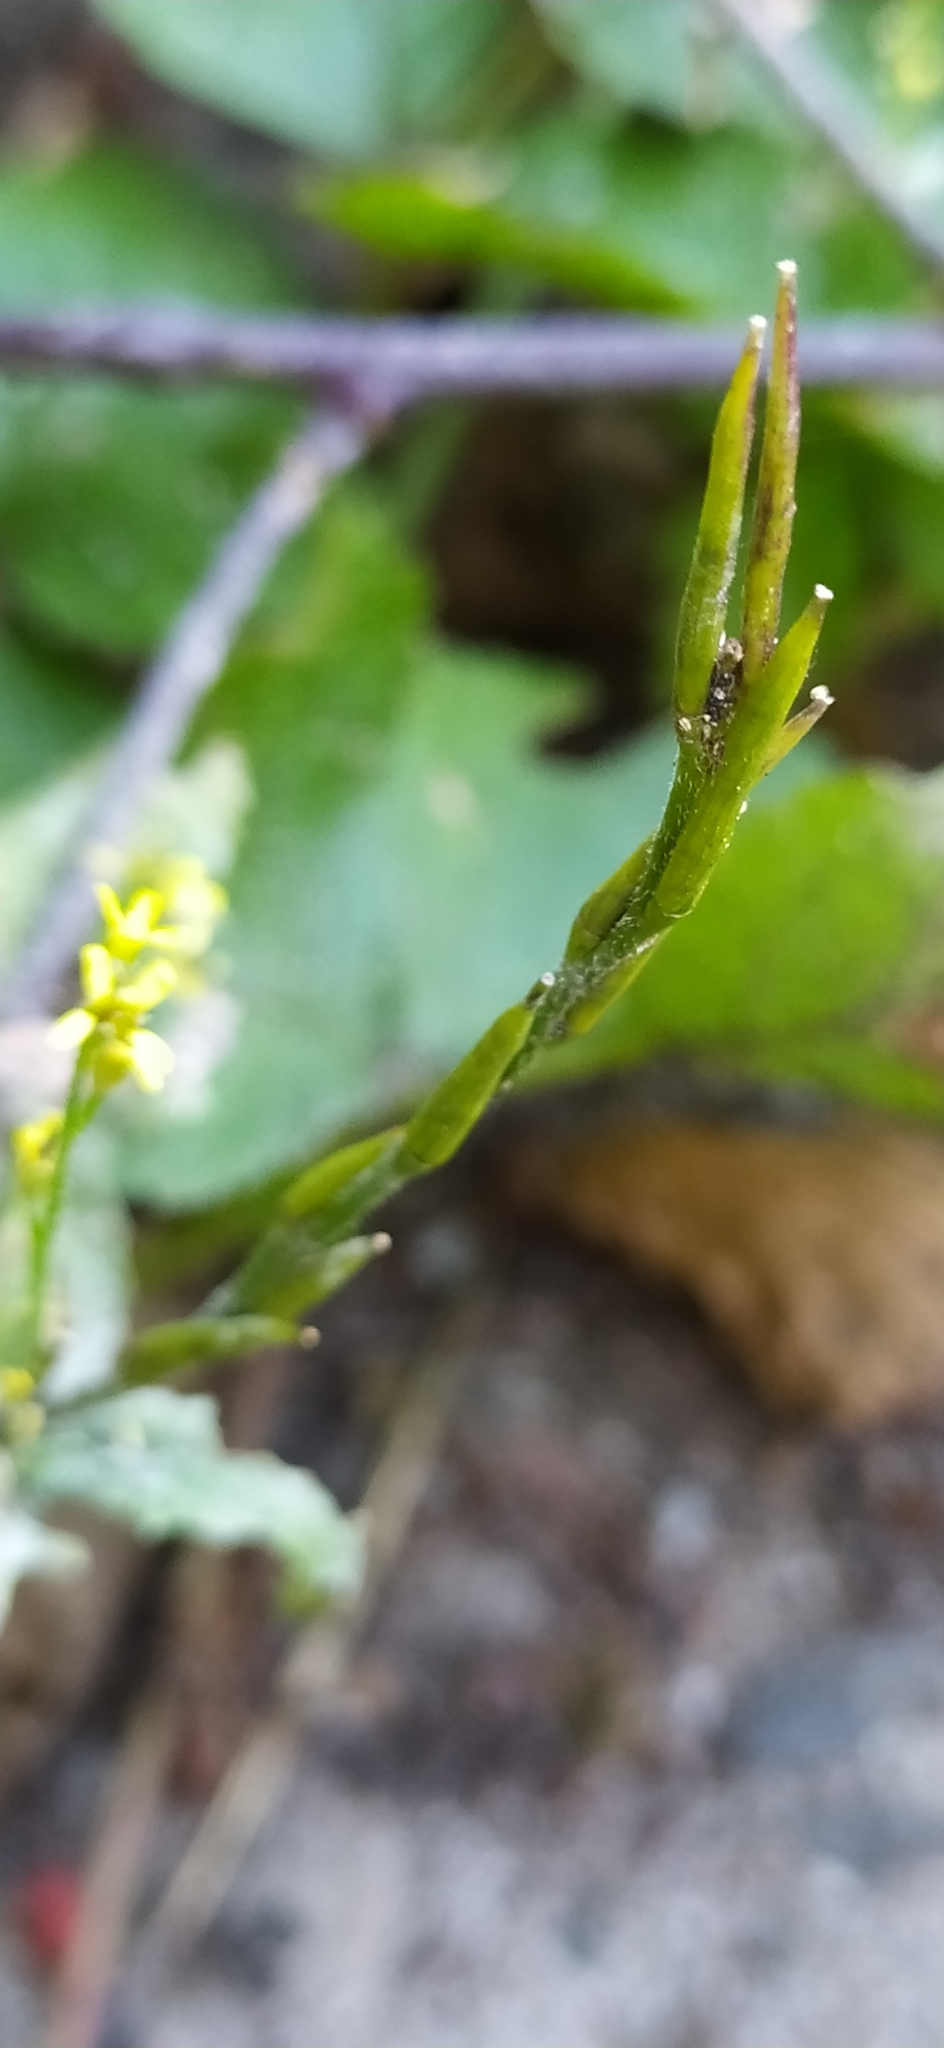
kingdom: Plantae
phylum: Tracheophyta
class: Magnoliopsida
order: Brassicales
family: Brassicaceae
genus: Sisymbrium
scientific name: Sisymbrium officinale
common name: Hedge mustard
